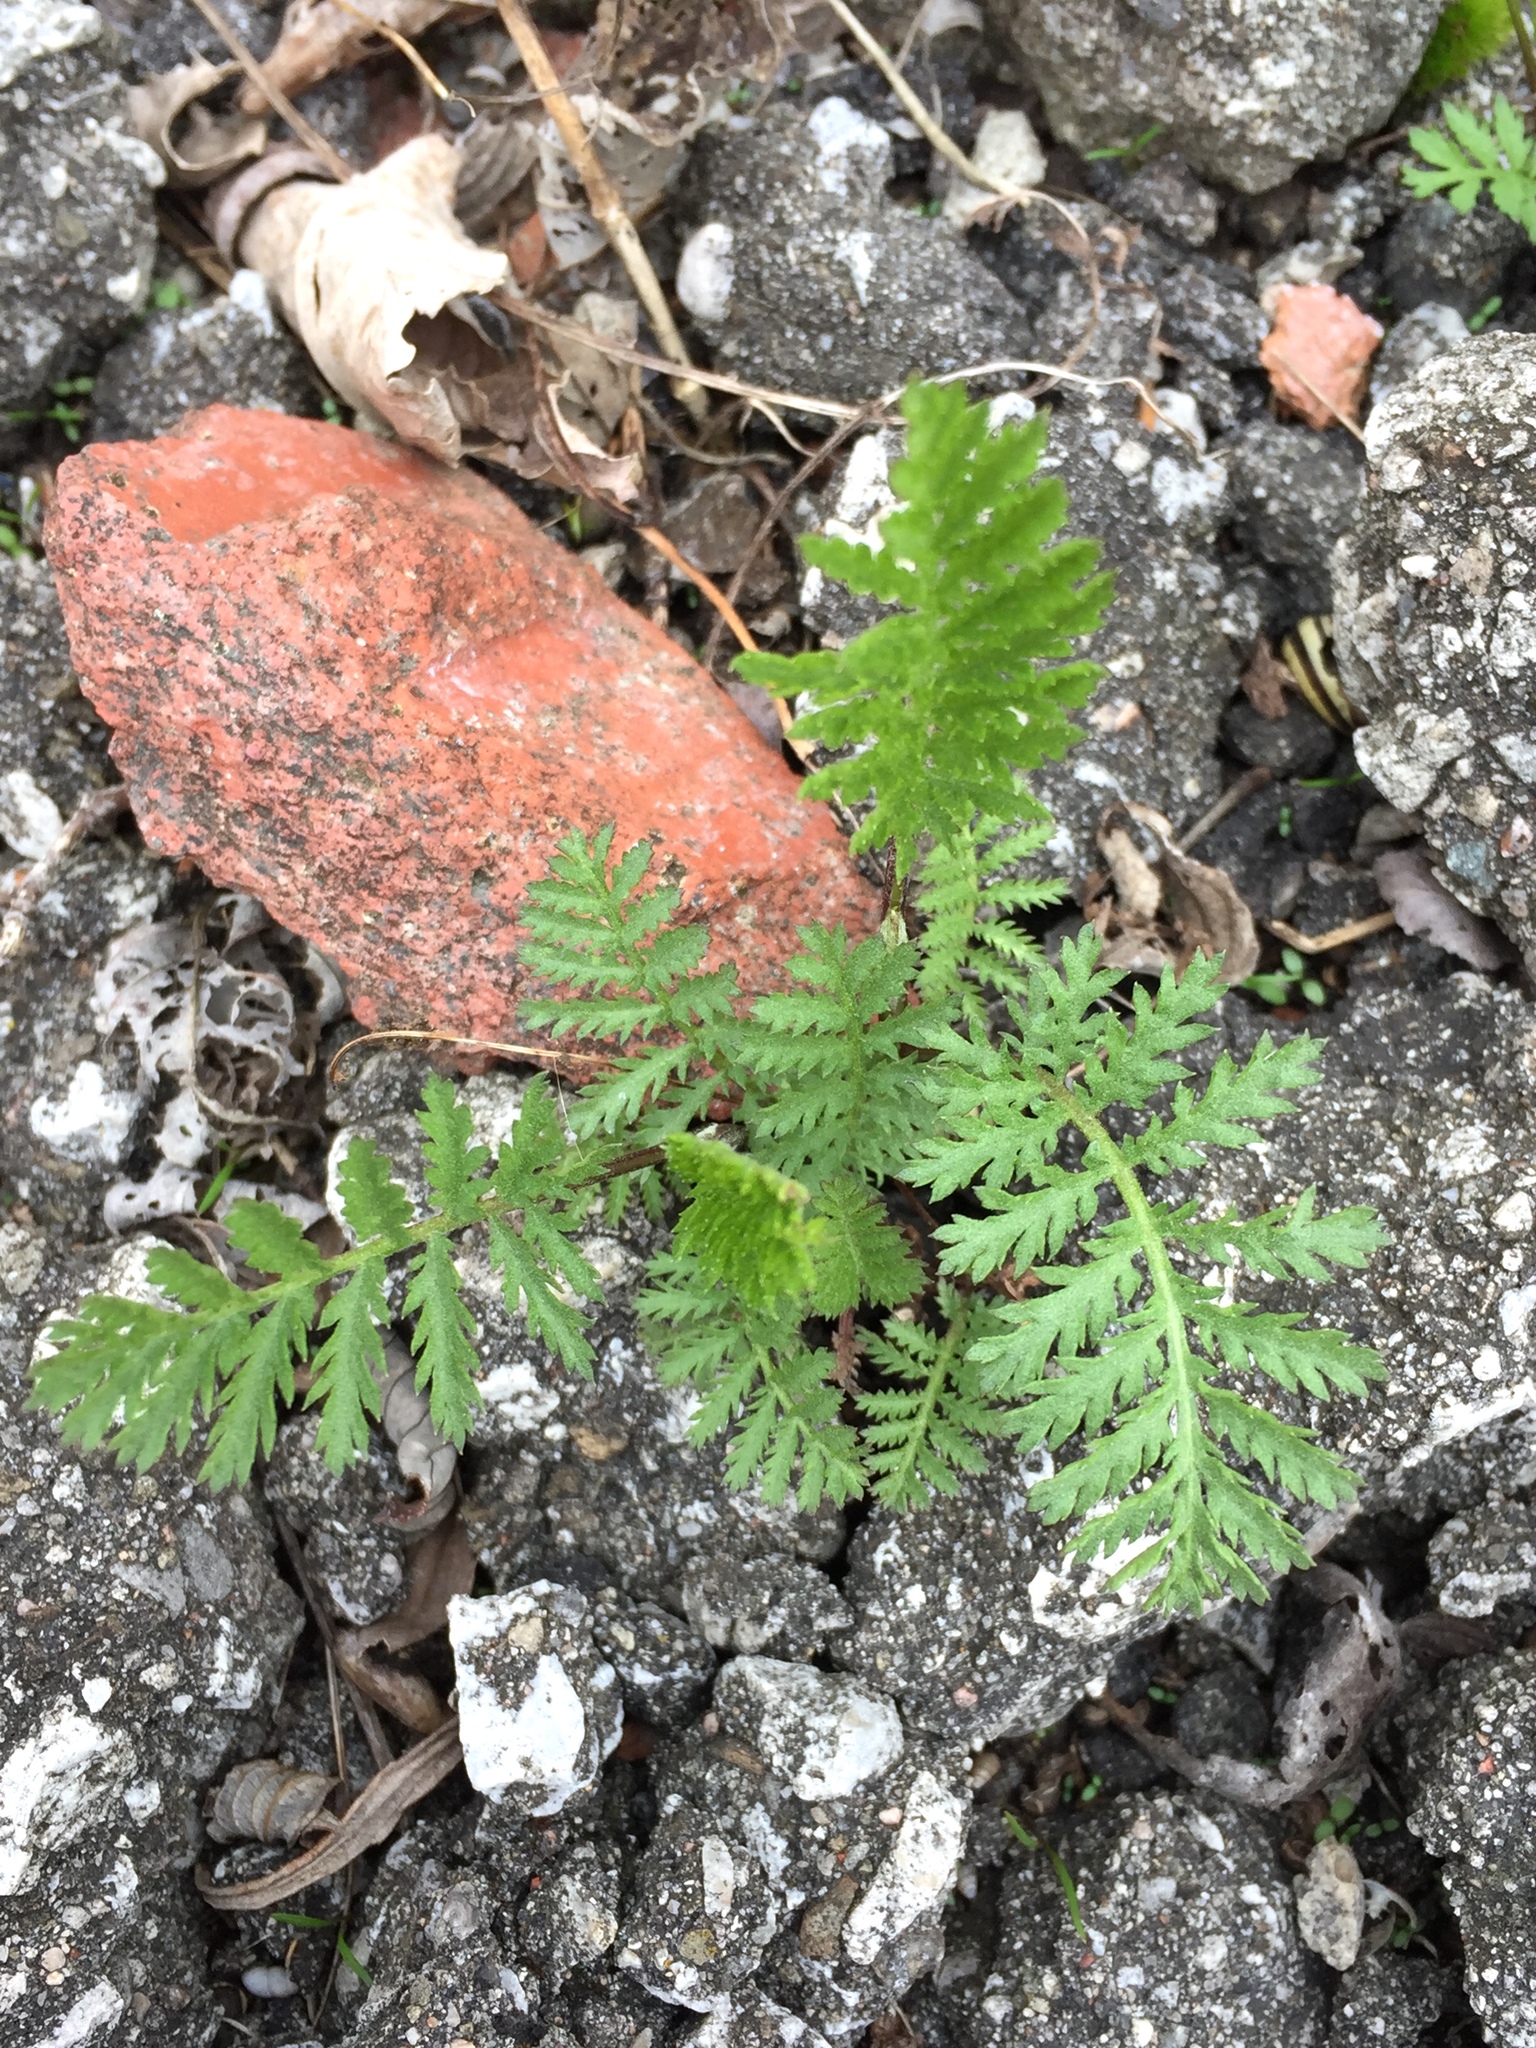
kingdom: Plantae
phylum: Tracheophyta
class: Magnoliopsida
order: Asterales
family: Asteraceae
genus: Tanacetum
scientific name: Tanacetum vulgare
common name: Common tansy
